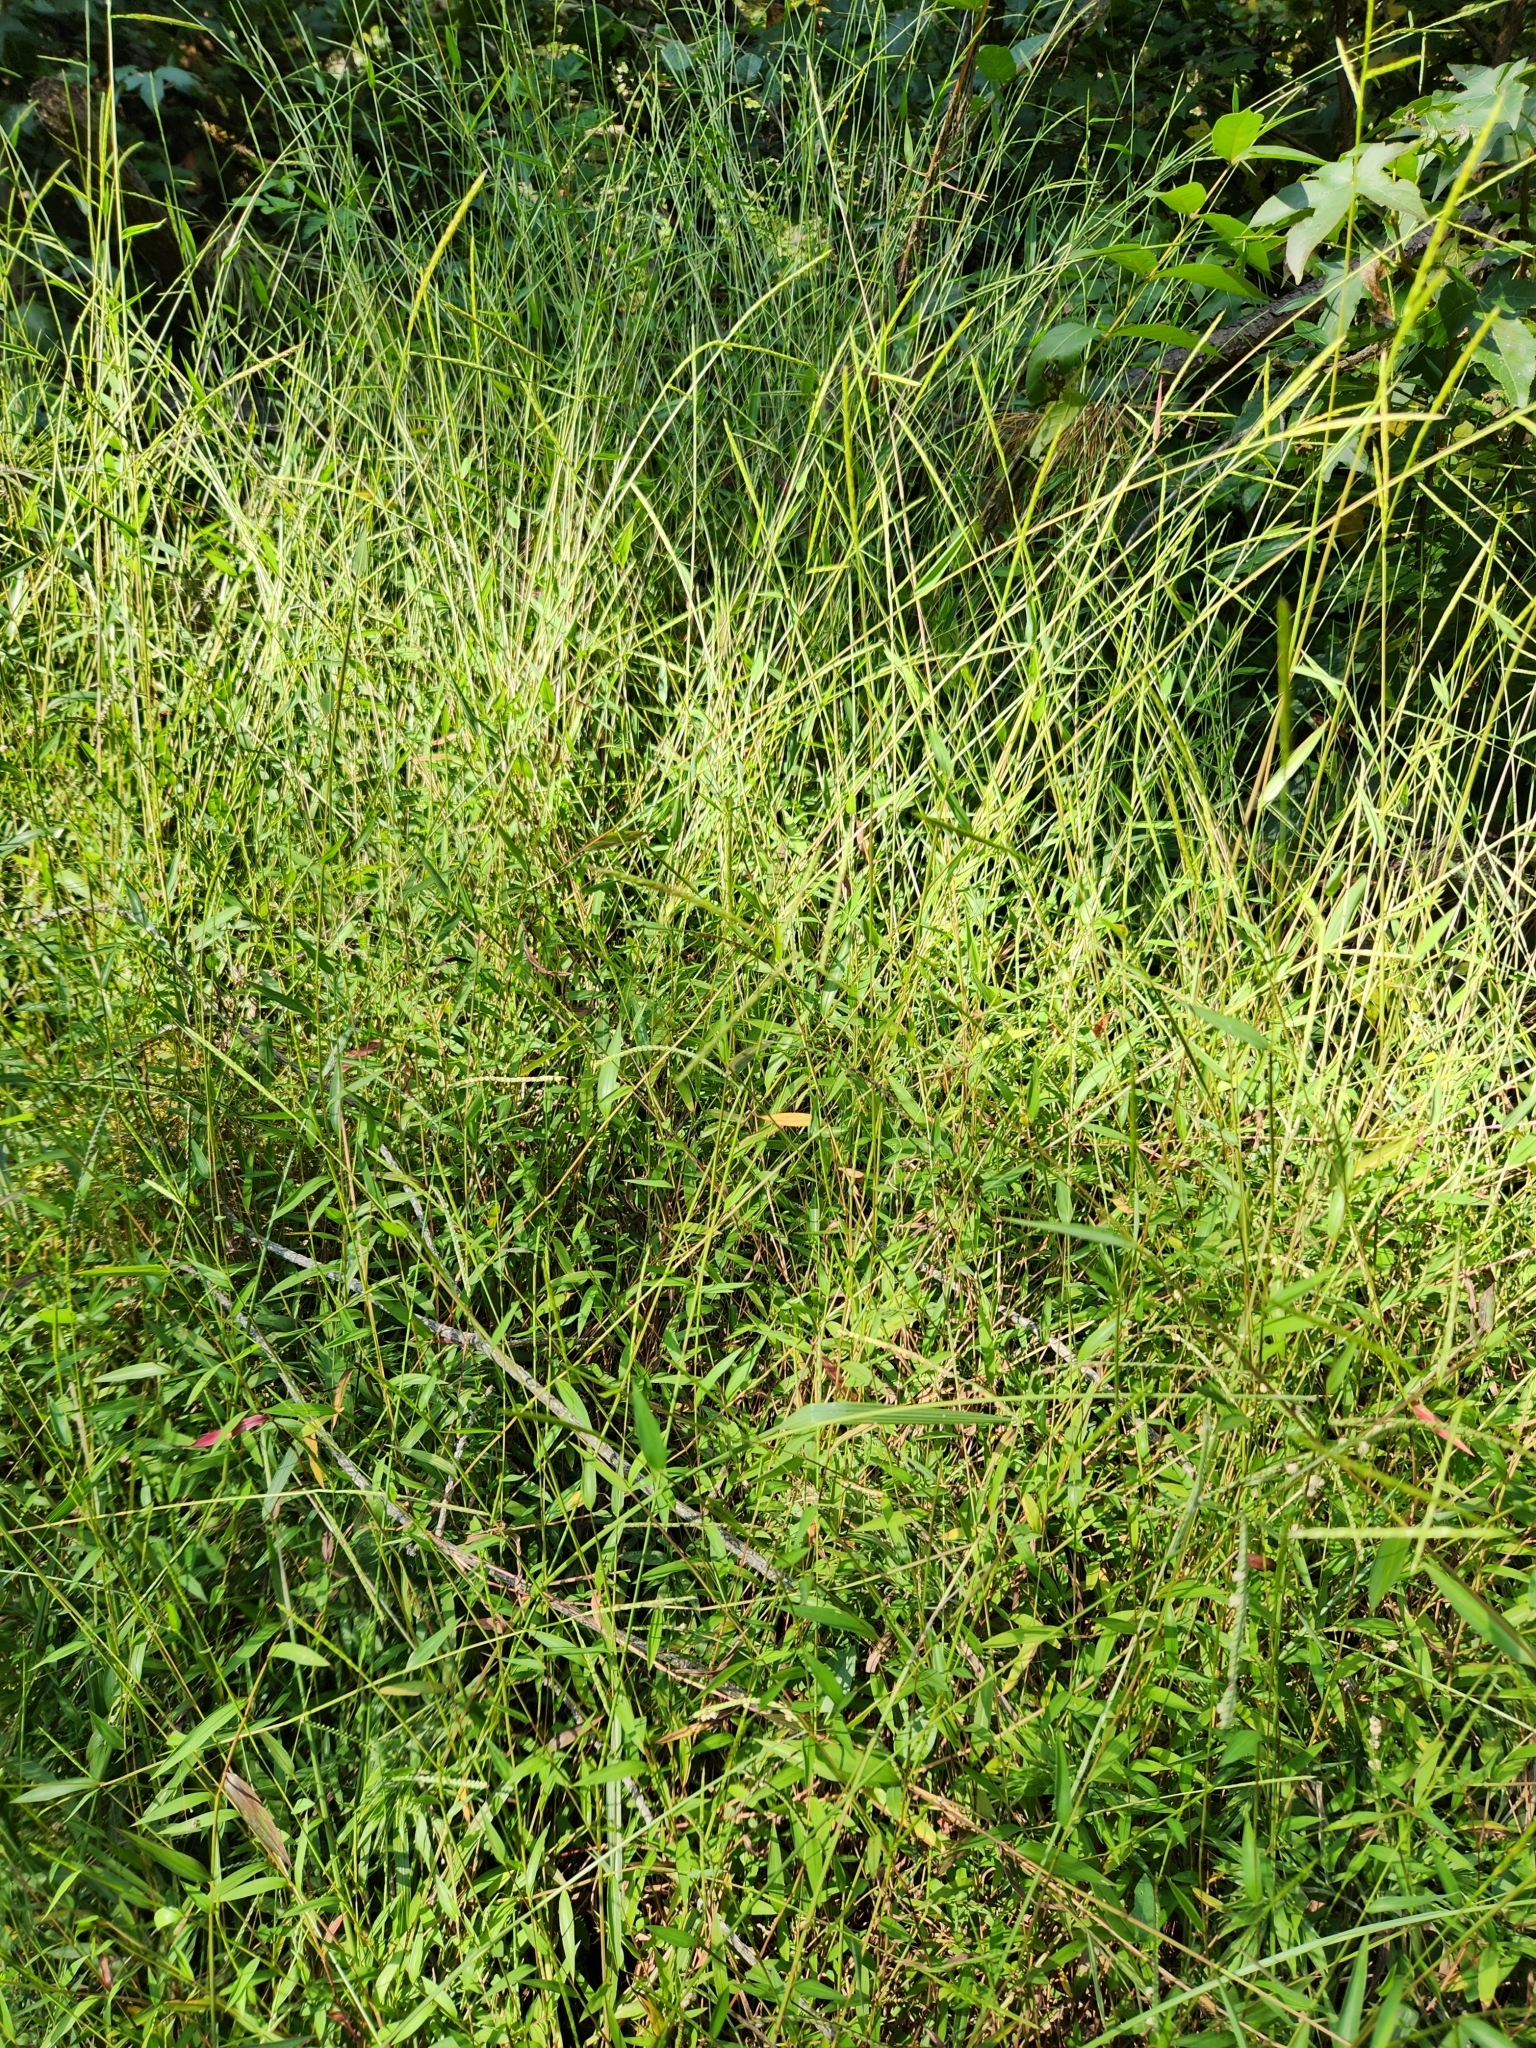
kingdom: Plantae
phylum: Tracheophyta
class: Liliopsida
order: Poales
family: Poaceae
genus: Microstegium
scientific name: Microstegium vimineum
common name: Japanese stiltgrass
